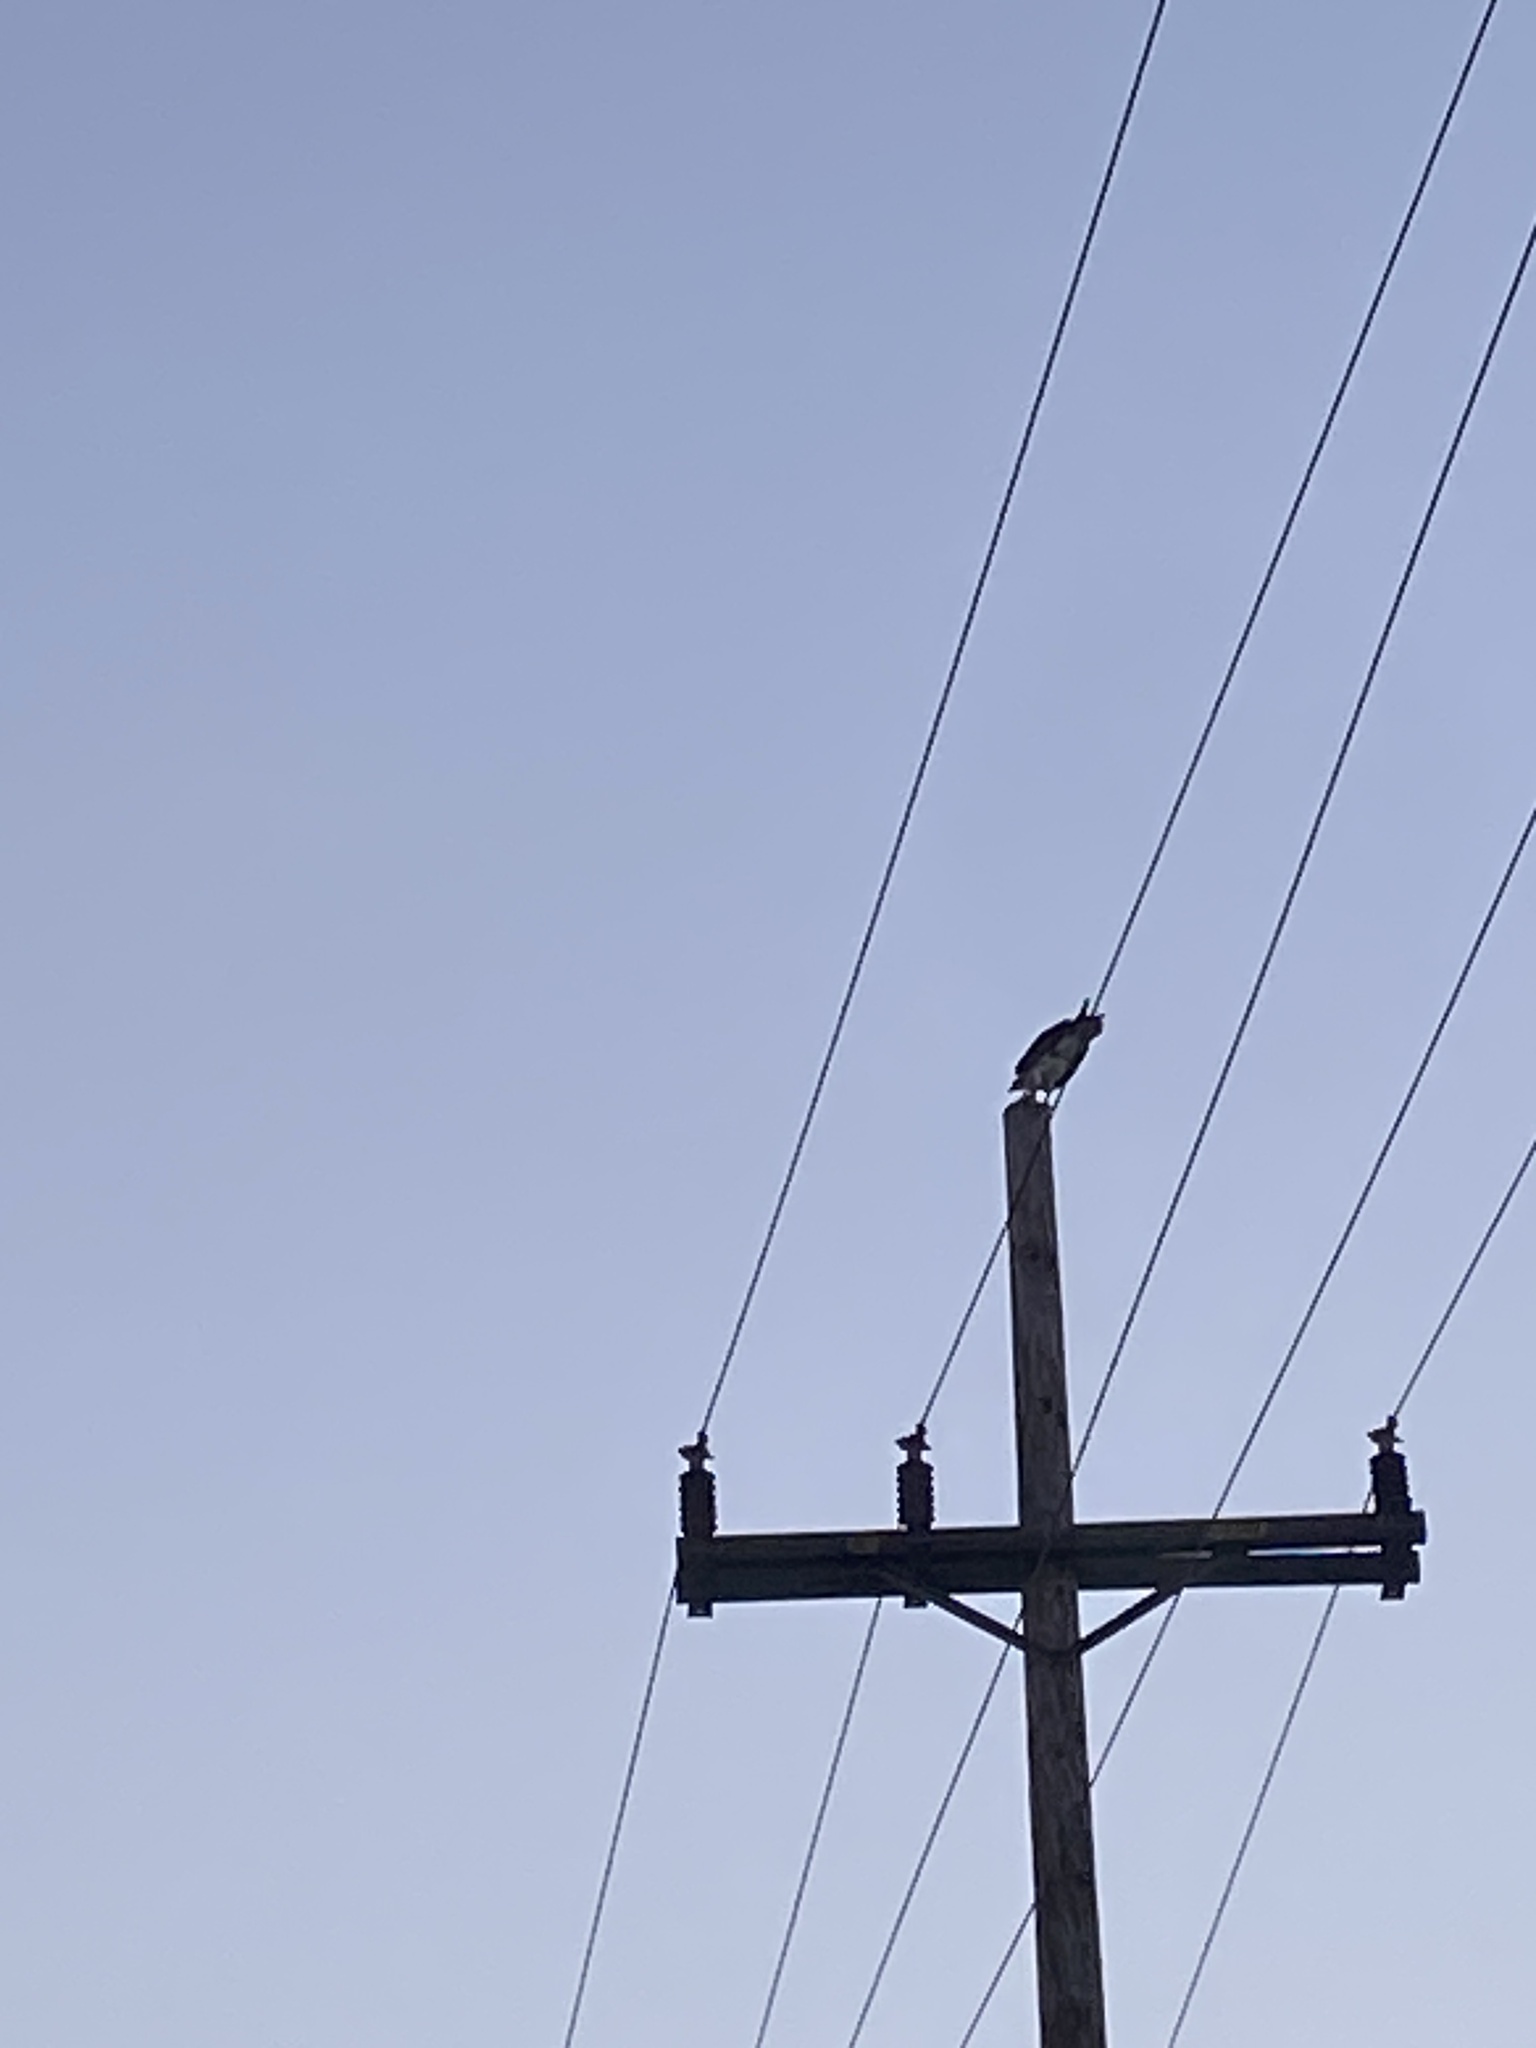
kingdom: Animalia
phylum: Chordata
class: Aves
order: Accipitriformes
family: Pandionidae
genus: Pandion
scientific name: Pandion haliaetus
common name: Osprey
